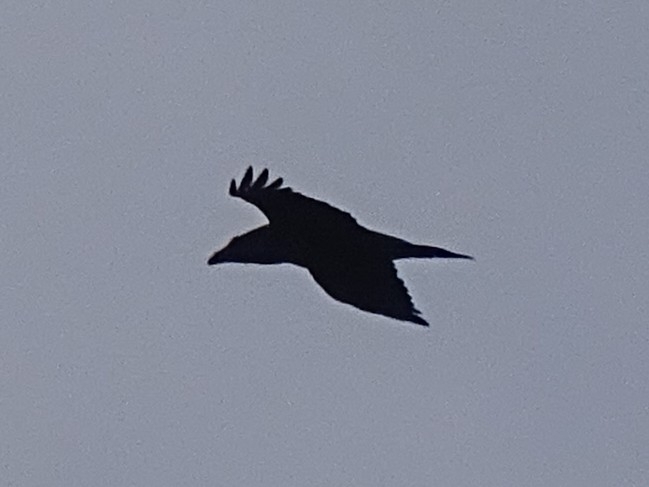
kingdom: Animalia
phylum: Chordata
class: Aves
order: Passeriformes
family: Corvidae
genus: Corvus
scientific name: Corvus corax
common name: Common raven
